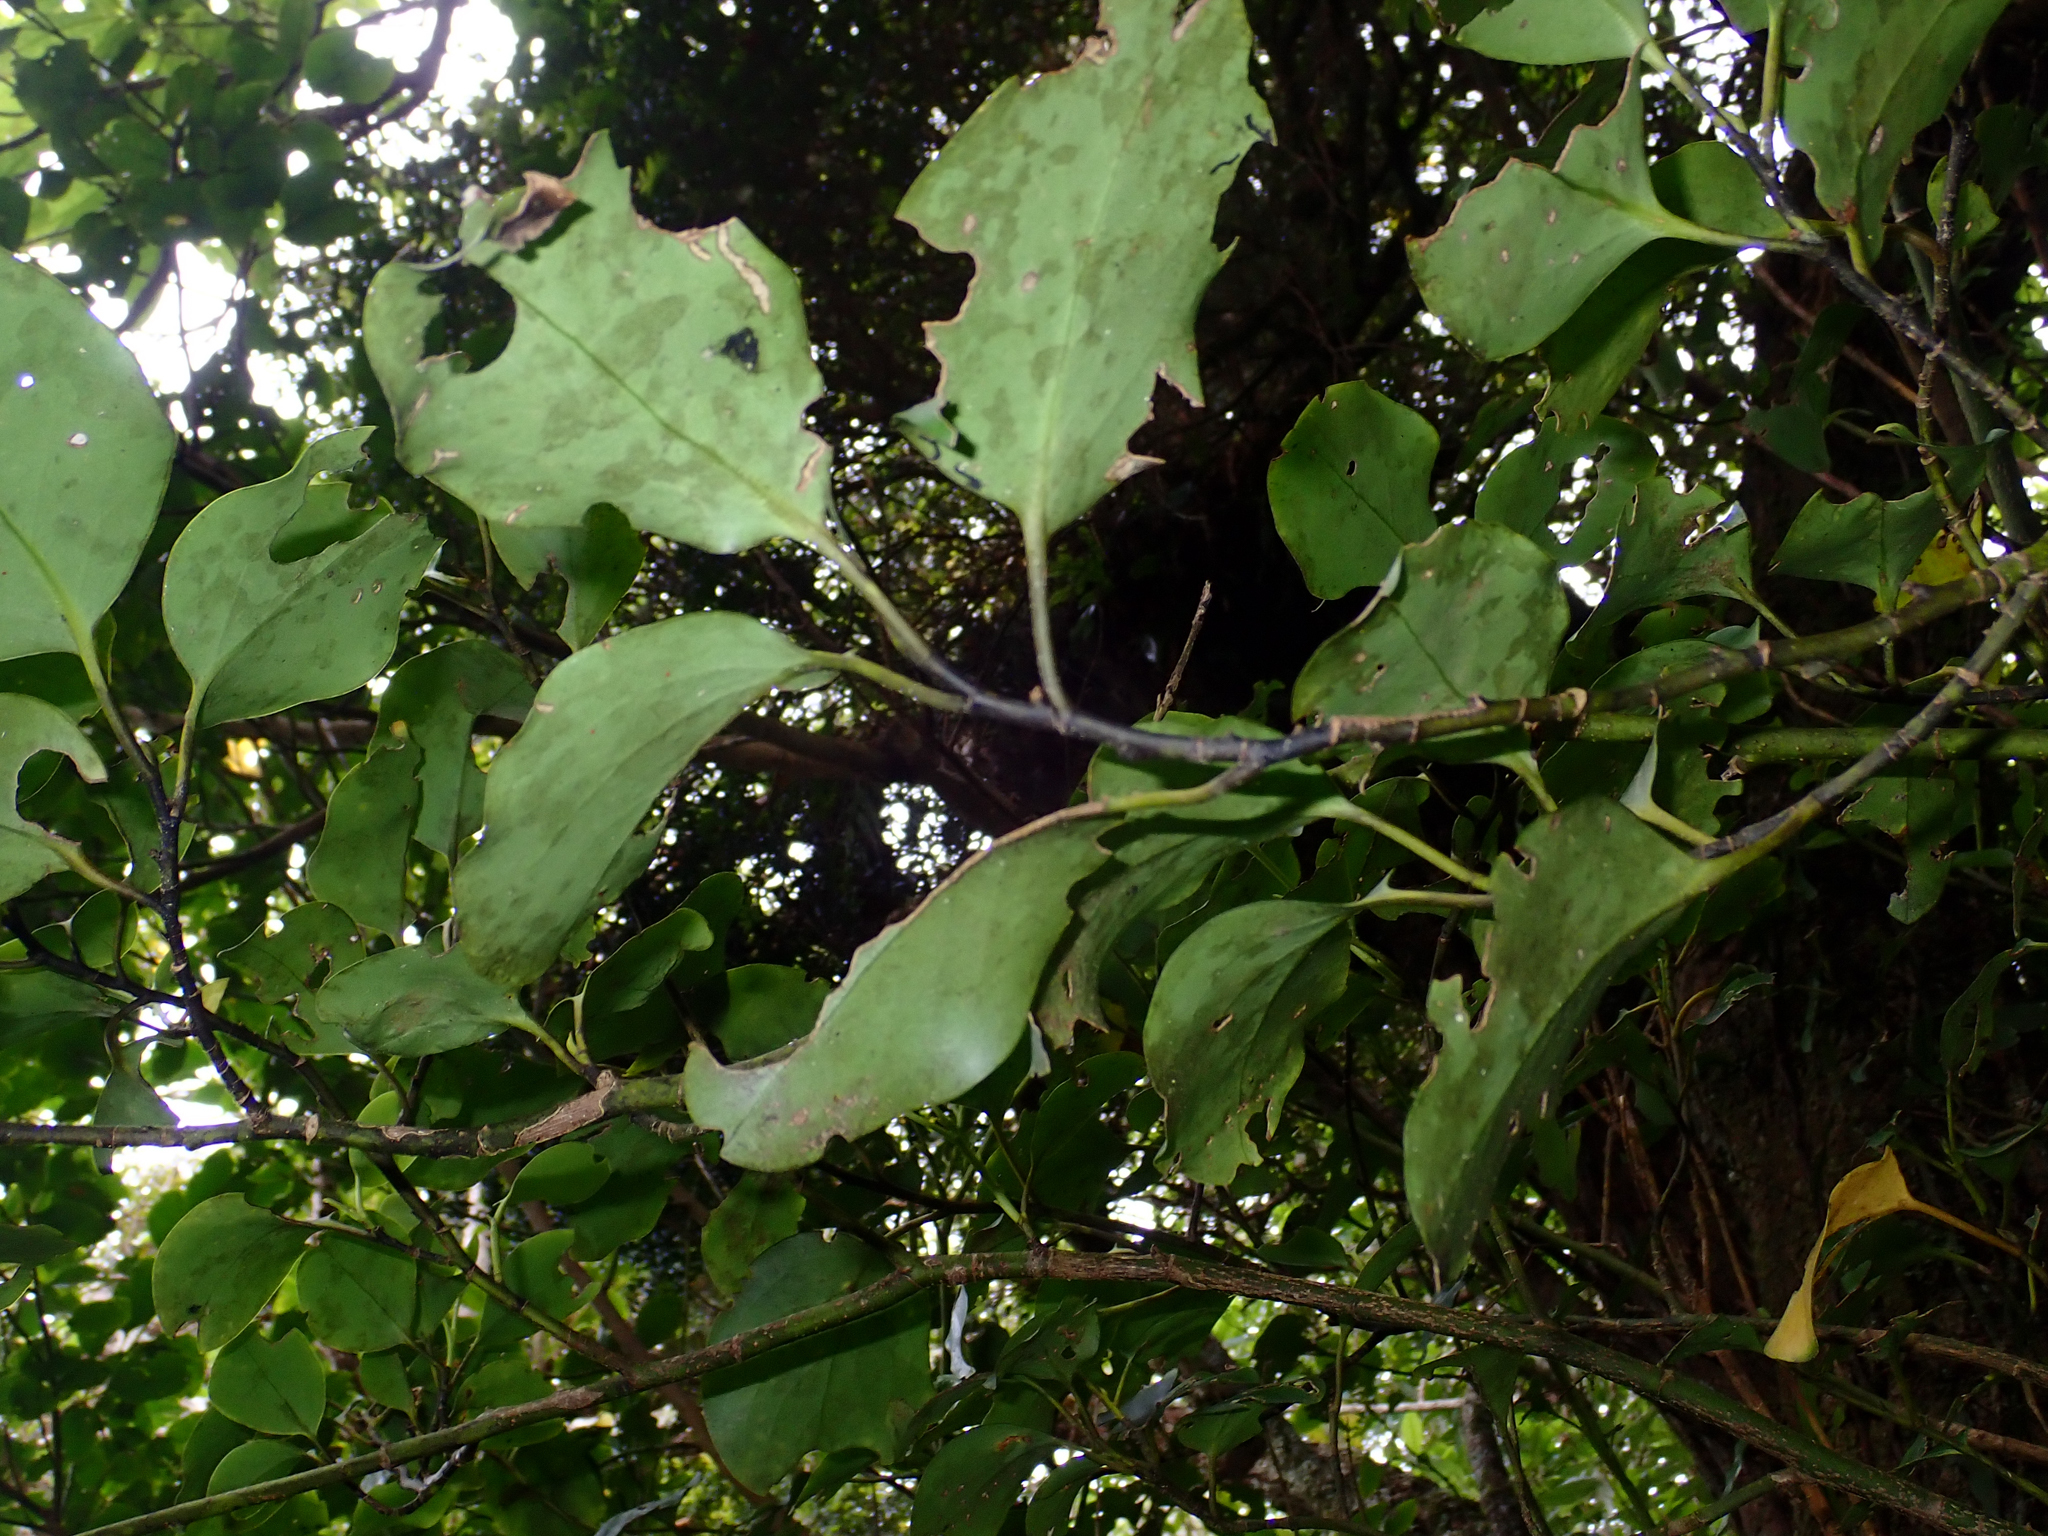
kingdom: Plantae
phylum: Tracheophyta
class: Magnoliopsida
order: Apiales
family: Griseliniaceae
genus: Griselinia
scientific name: Griselinia littoralis
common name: New zealand broadleaf
